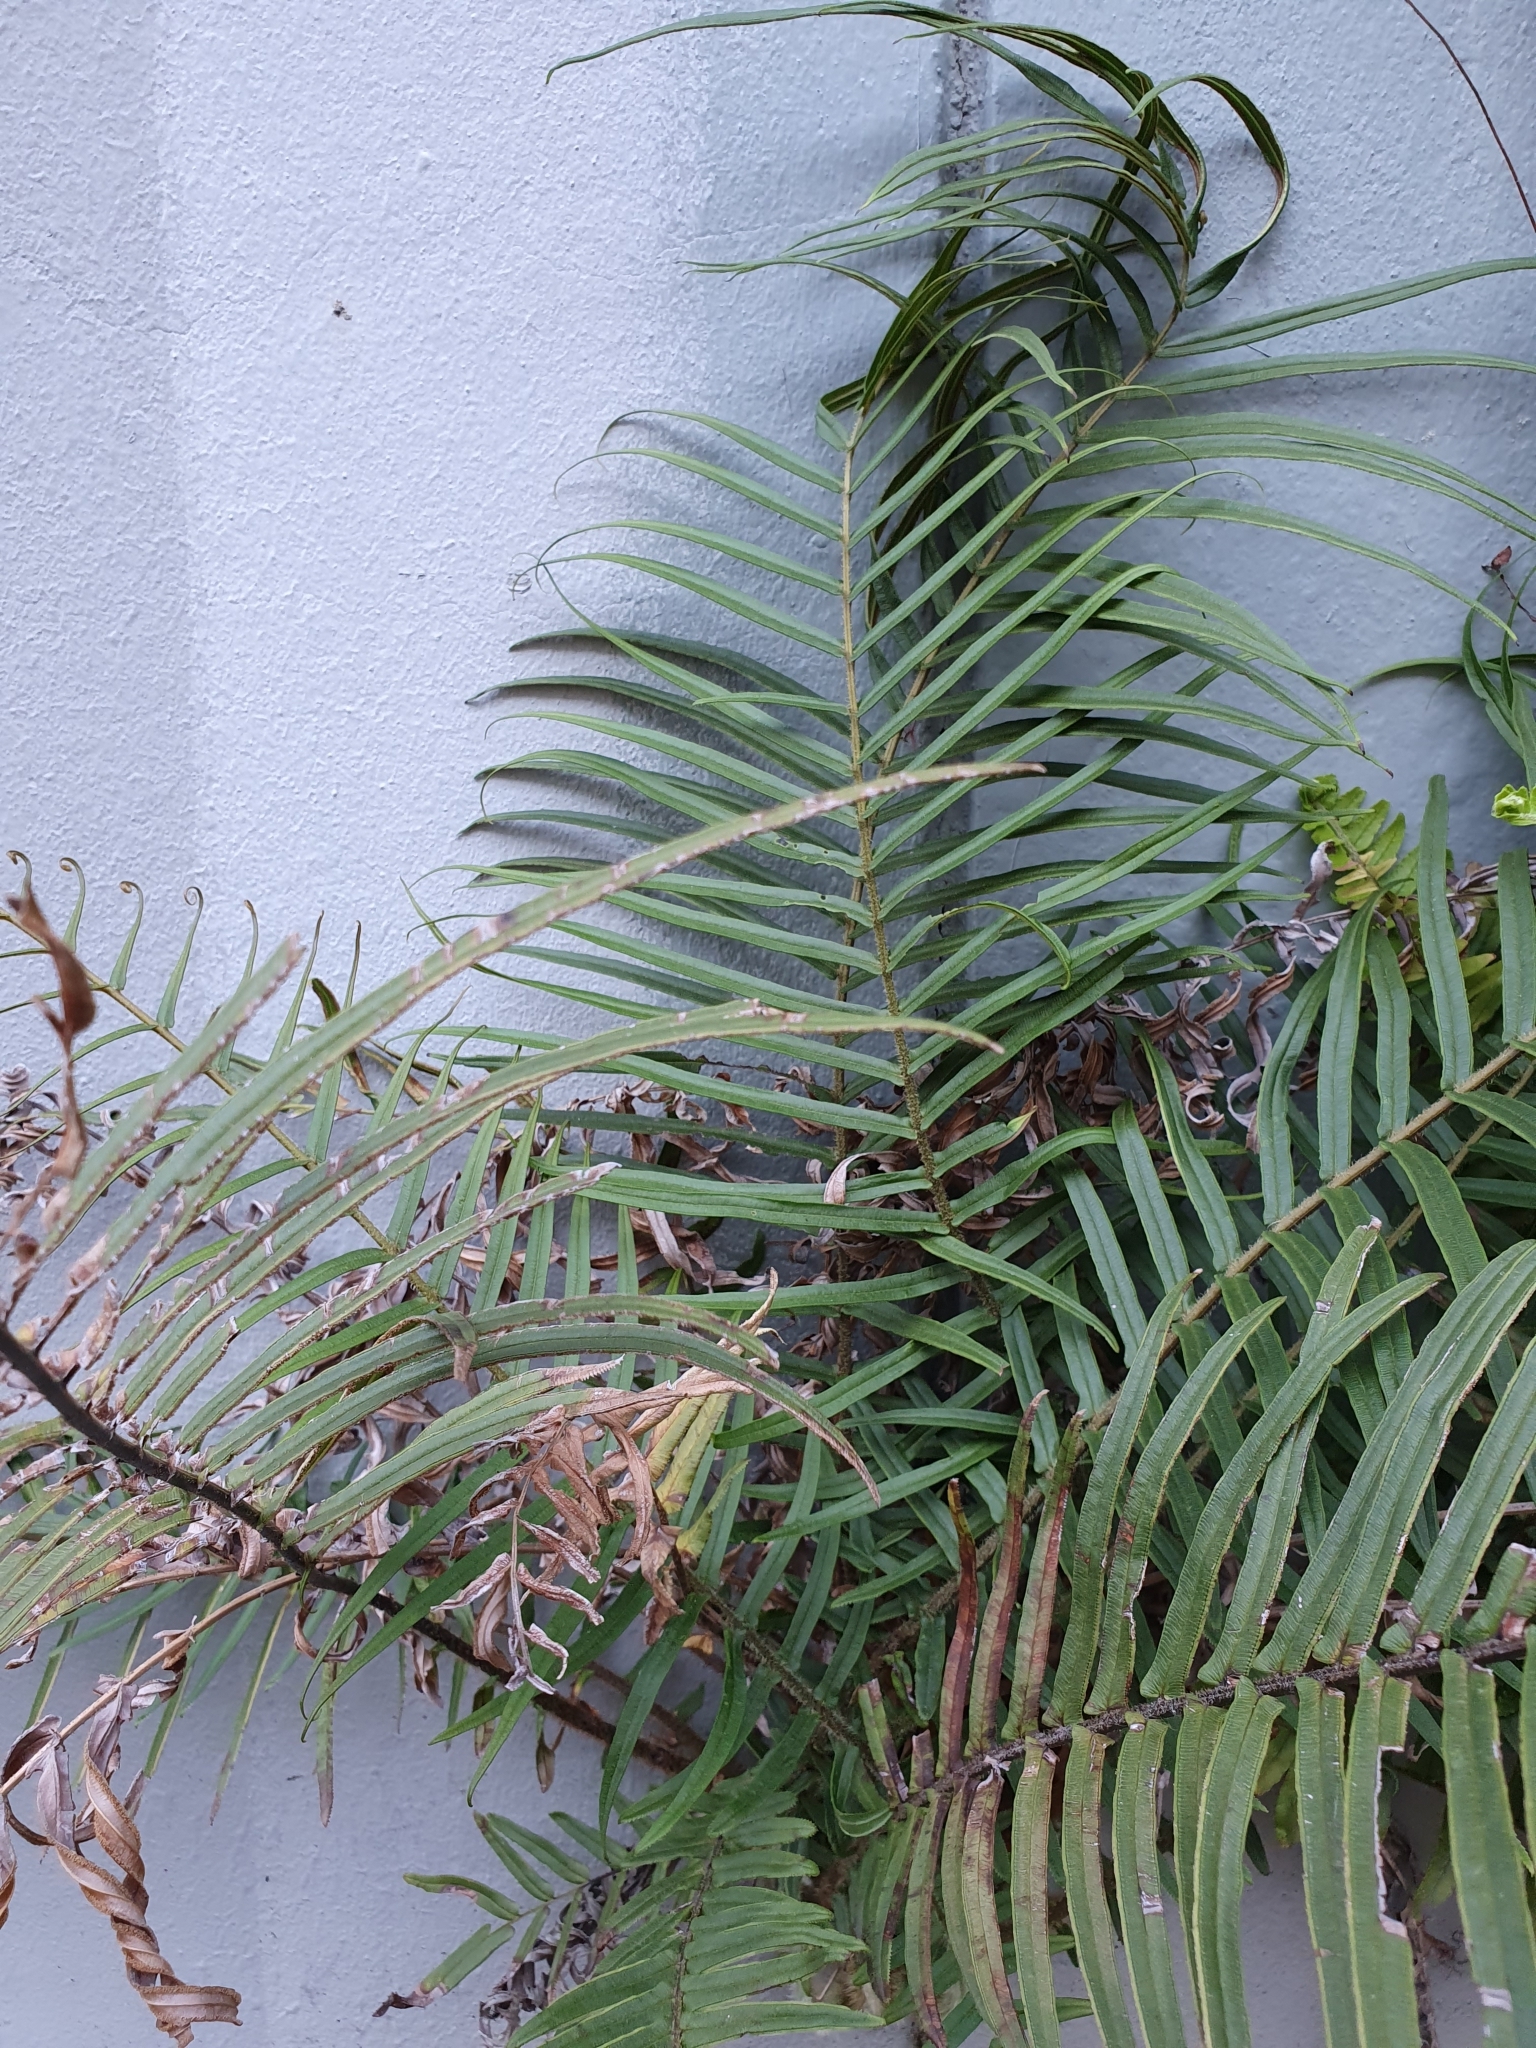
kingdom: Plantae
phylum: Tracheophyta
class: Polypodiopsida
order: Polypodiales
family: Pteridaceae
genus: Pteris
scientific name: Pteris vittata
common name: Ladder brake
